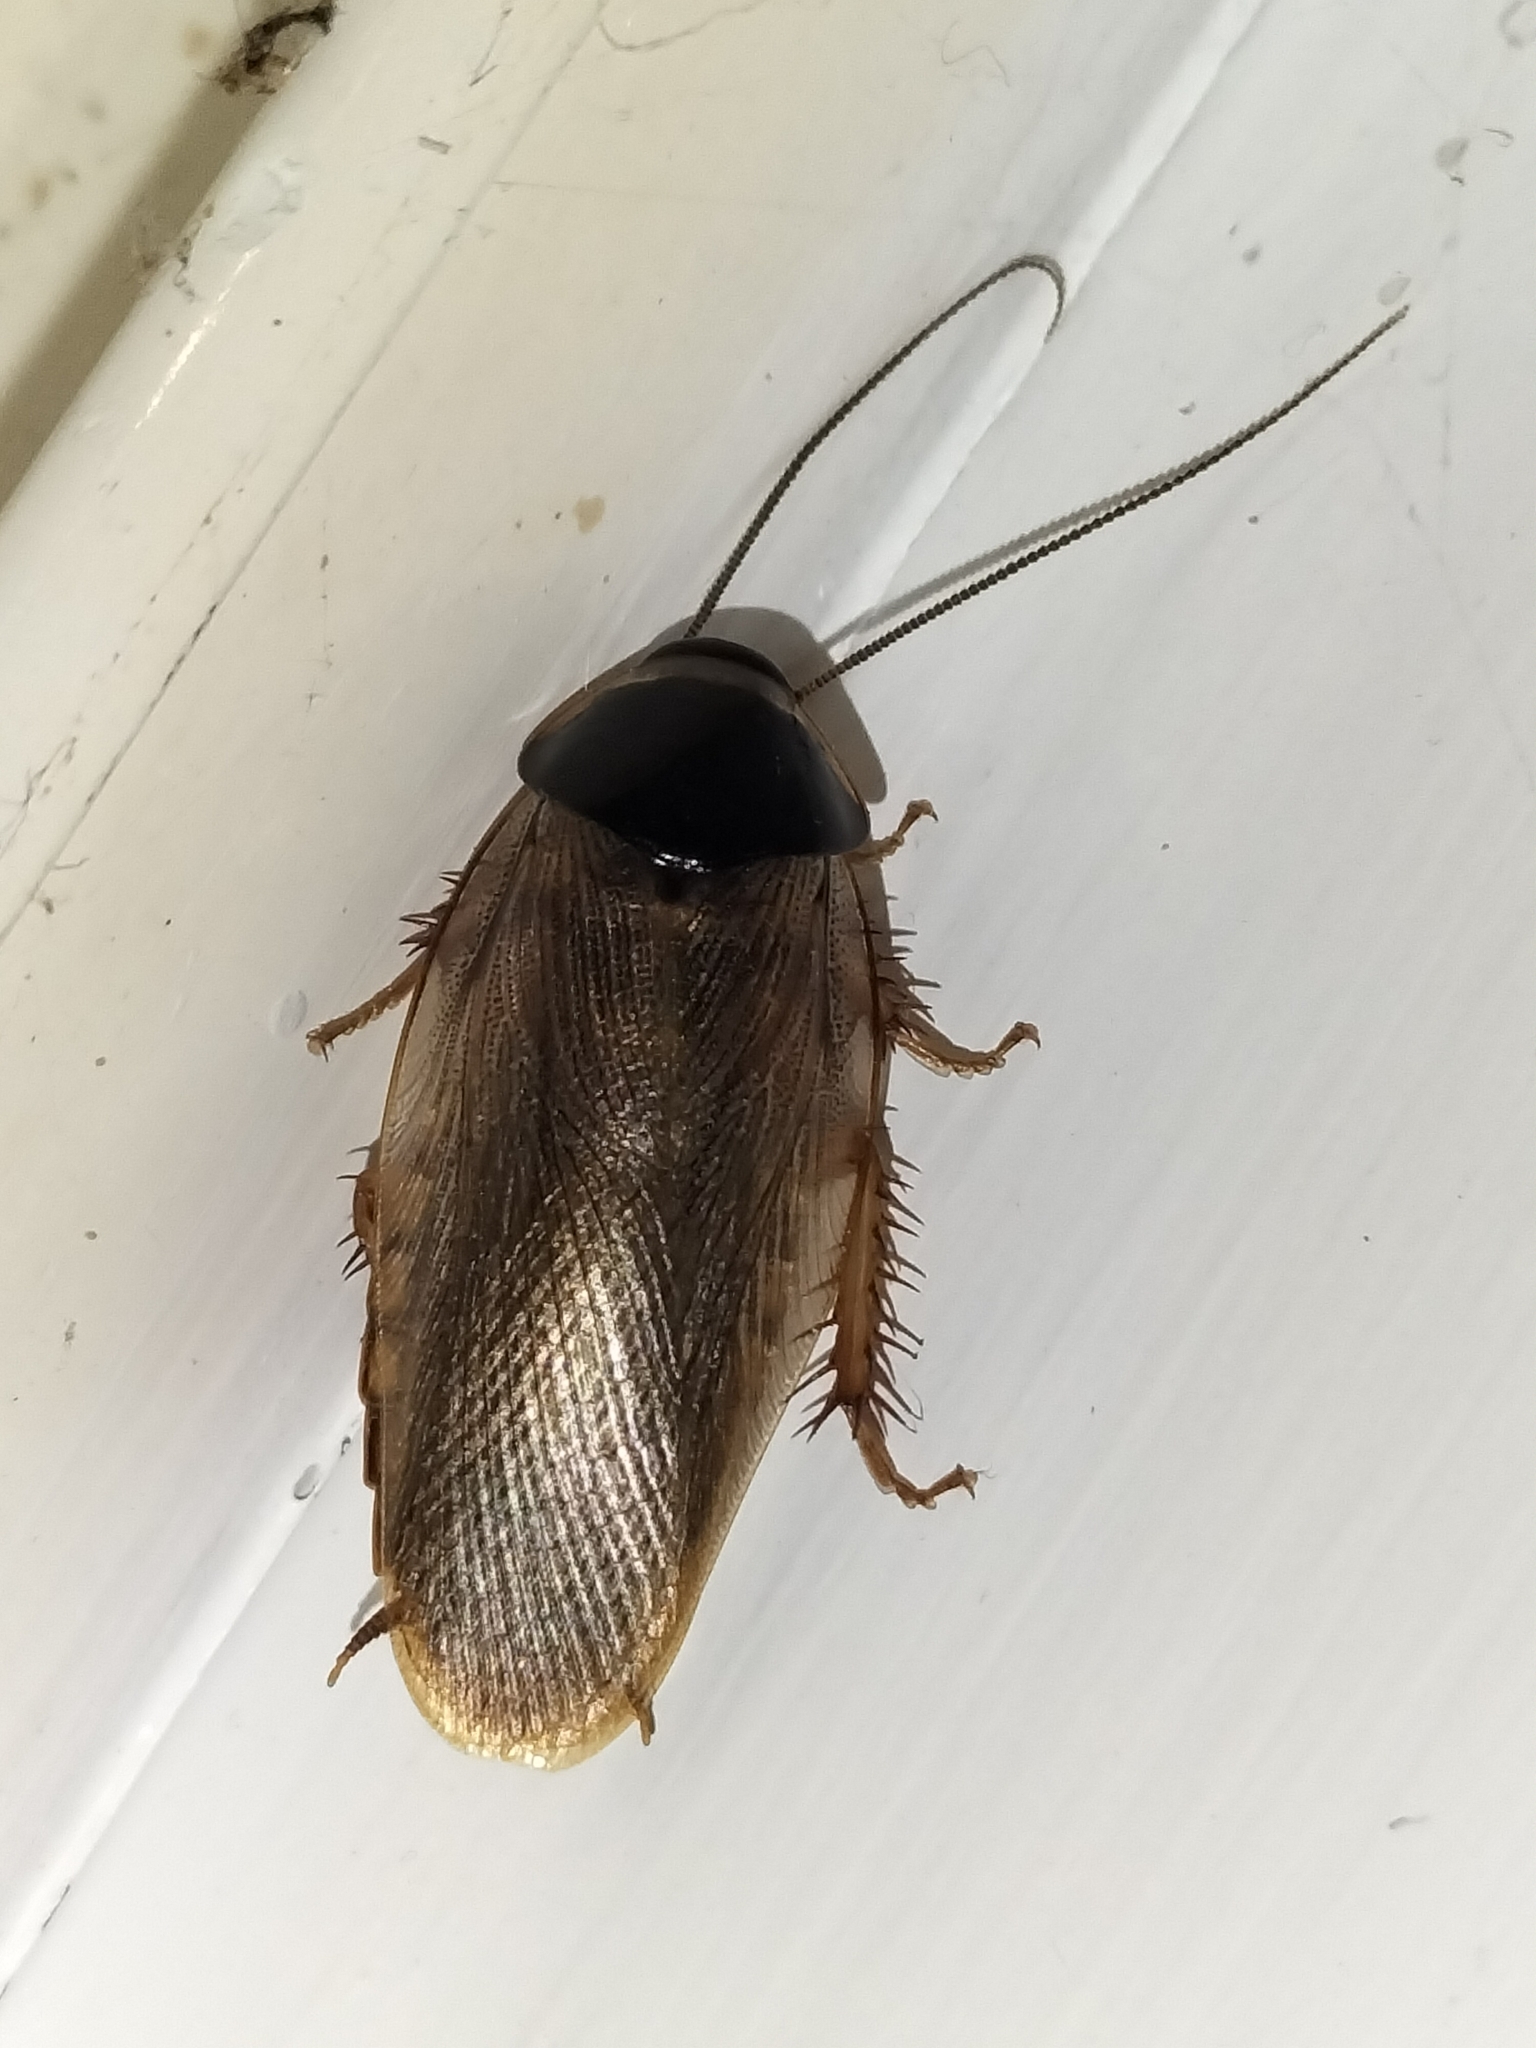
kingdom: Animalia
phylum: Arthropoda
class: Insecta
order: Blattodea
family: Blaberidae
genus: Pycnoscelus
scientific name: Pycnoscelus surinamensis
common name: Surinam cockroach
